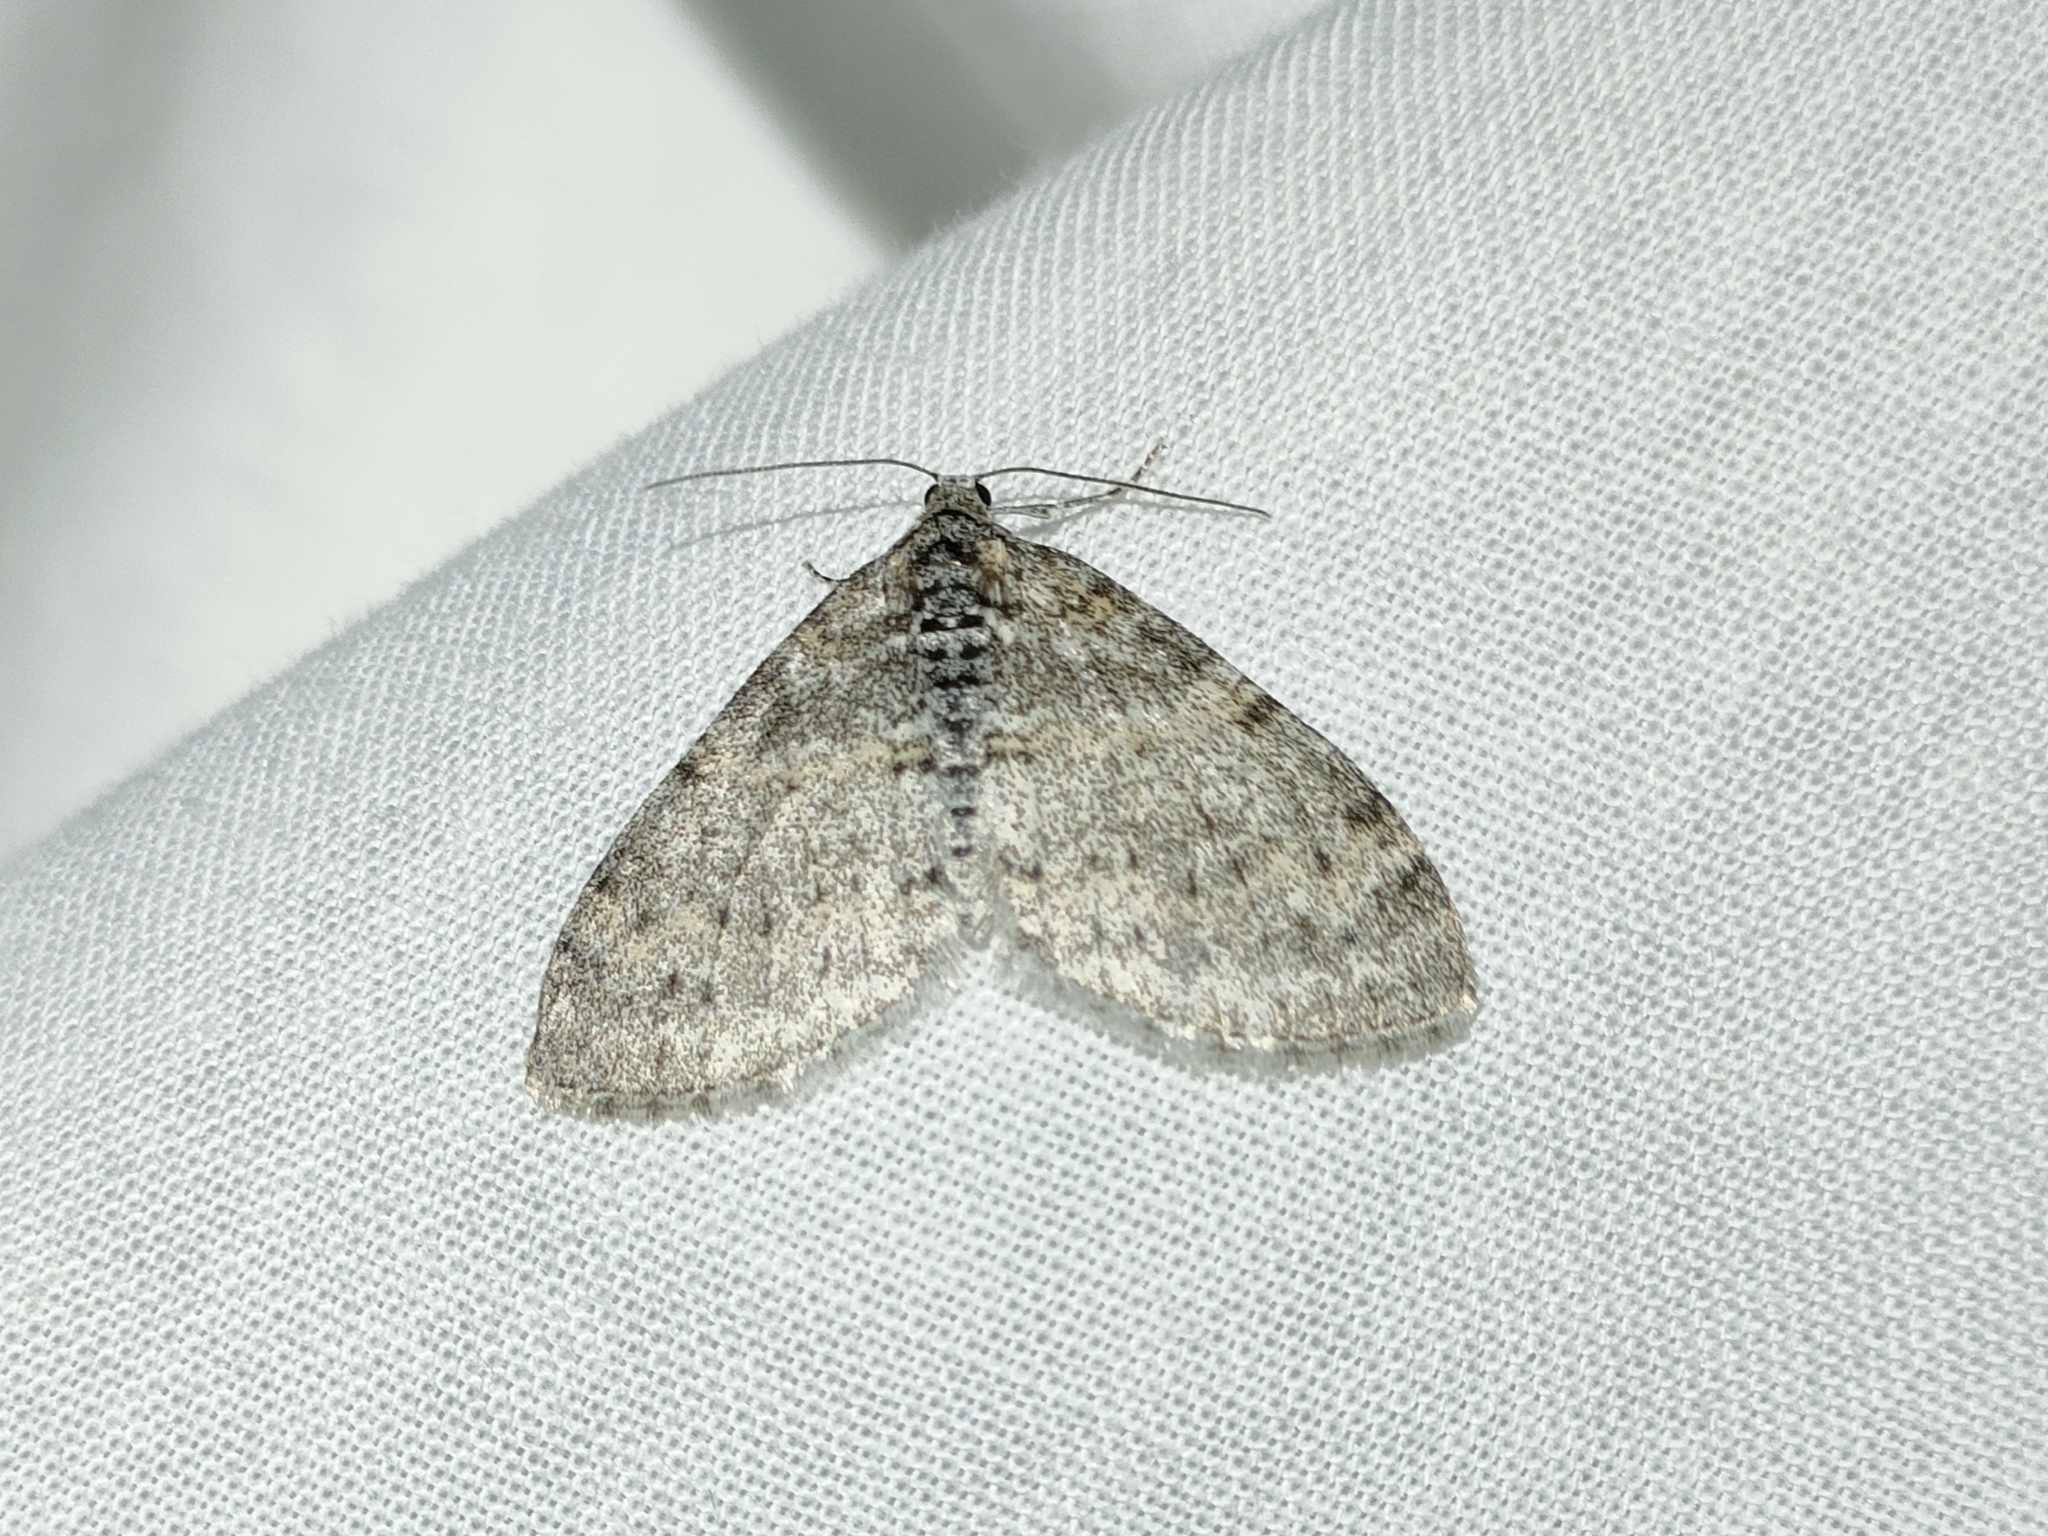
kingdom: Animalia
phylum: Arthropoda
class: Insecta
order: Lepidoptera
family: Geometridae
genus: Lobophora
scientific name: Lobophora halterata
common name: Seraphim
